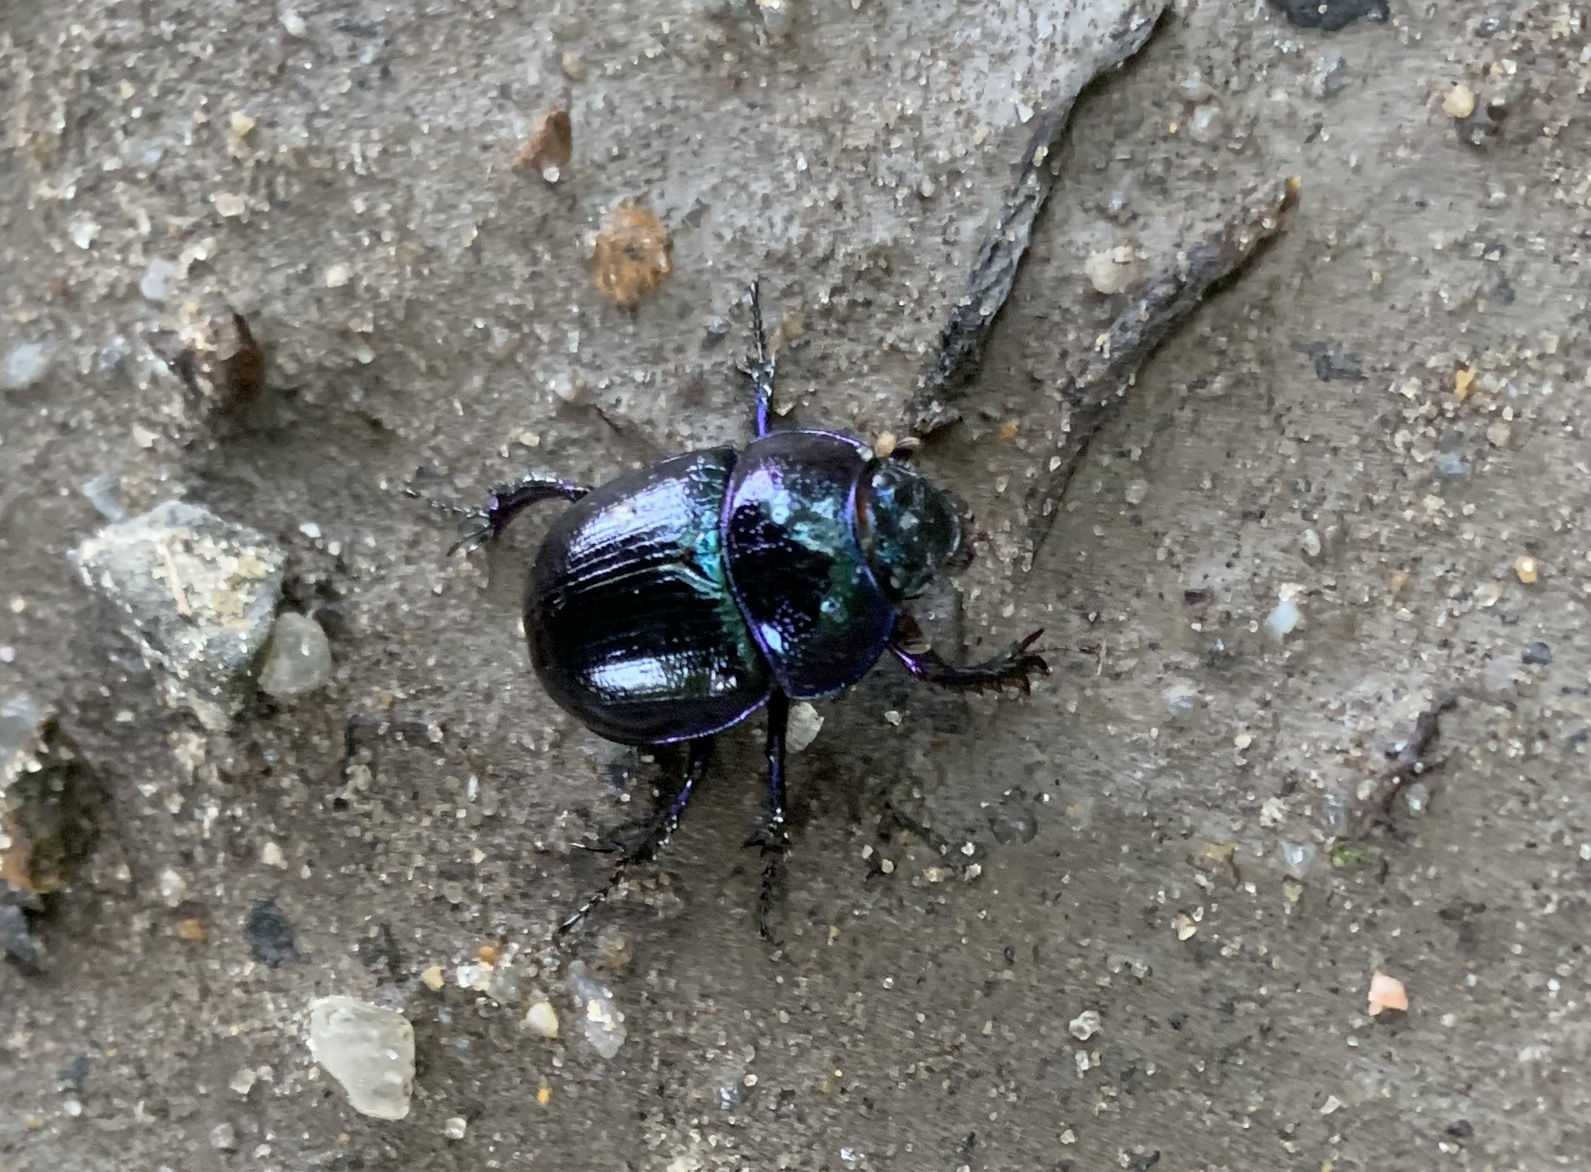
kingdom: Animalia
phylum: Arthropoda
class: Insecta
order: Coleoptera
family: Geotrupidae
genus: Anoplotrupes
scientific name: Anoplotrupes stercorosus
